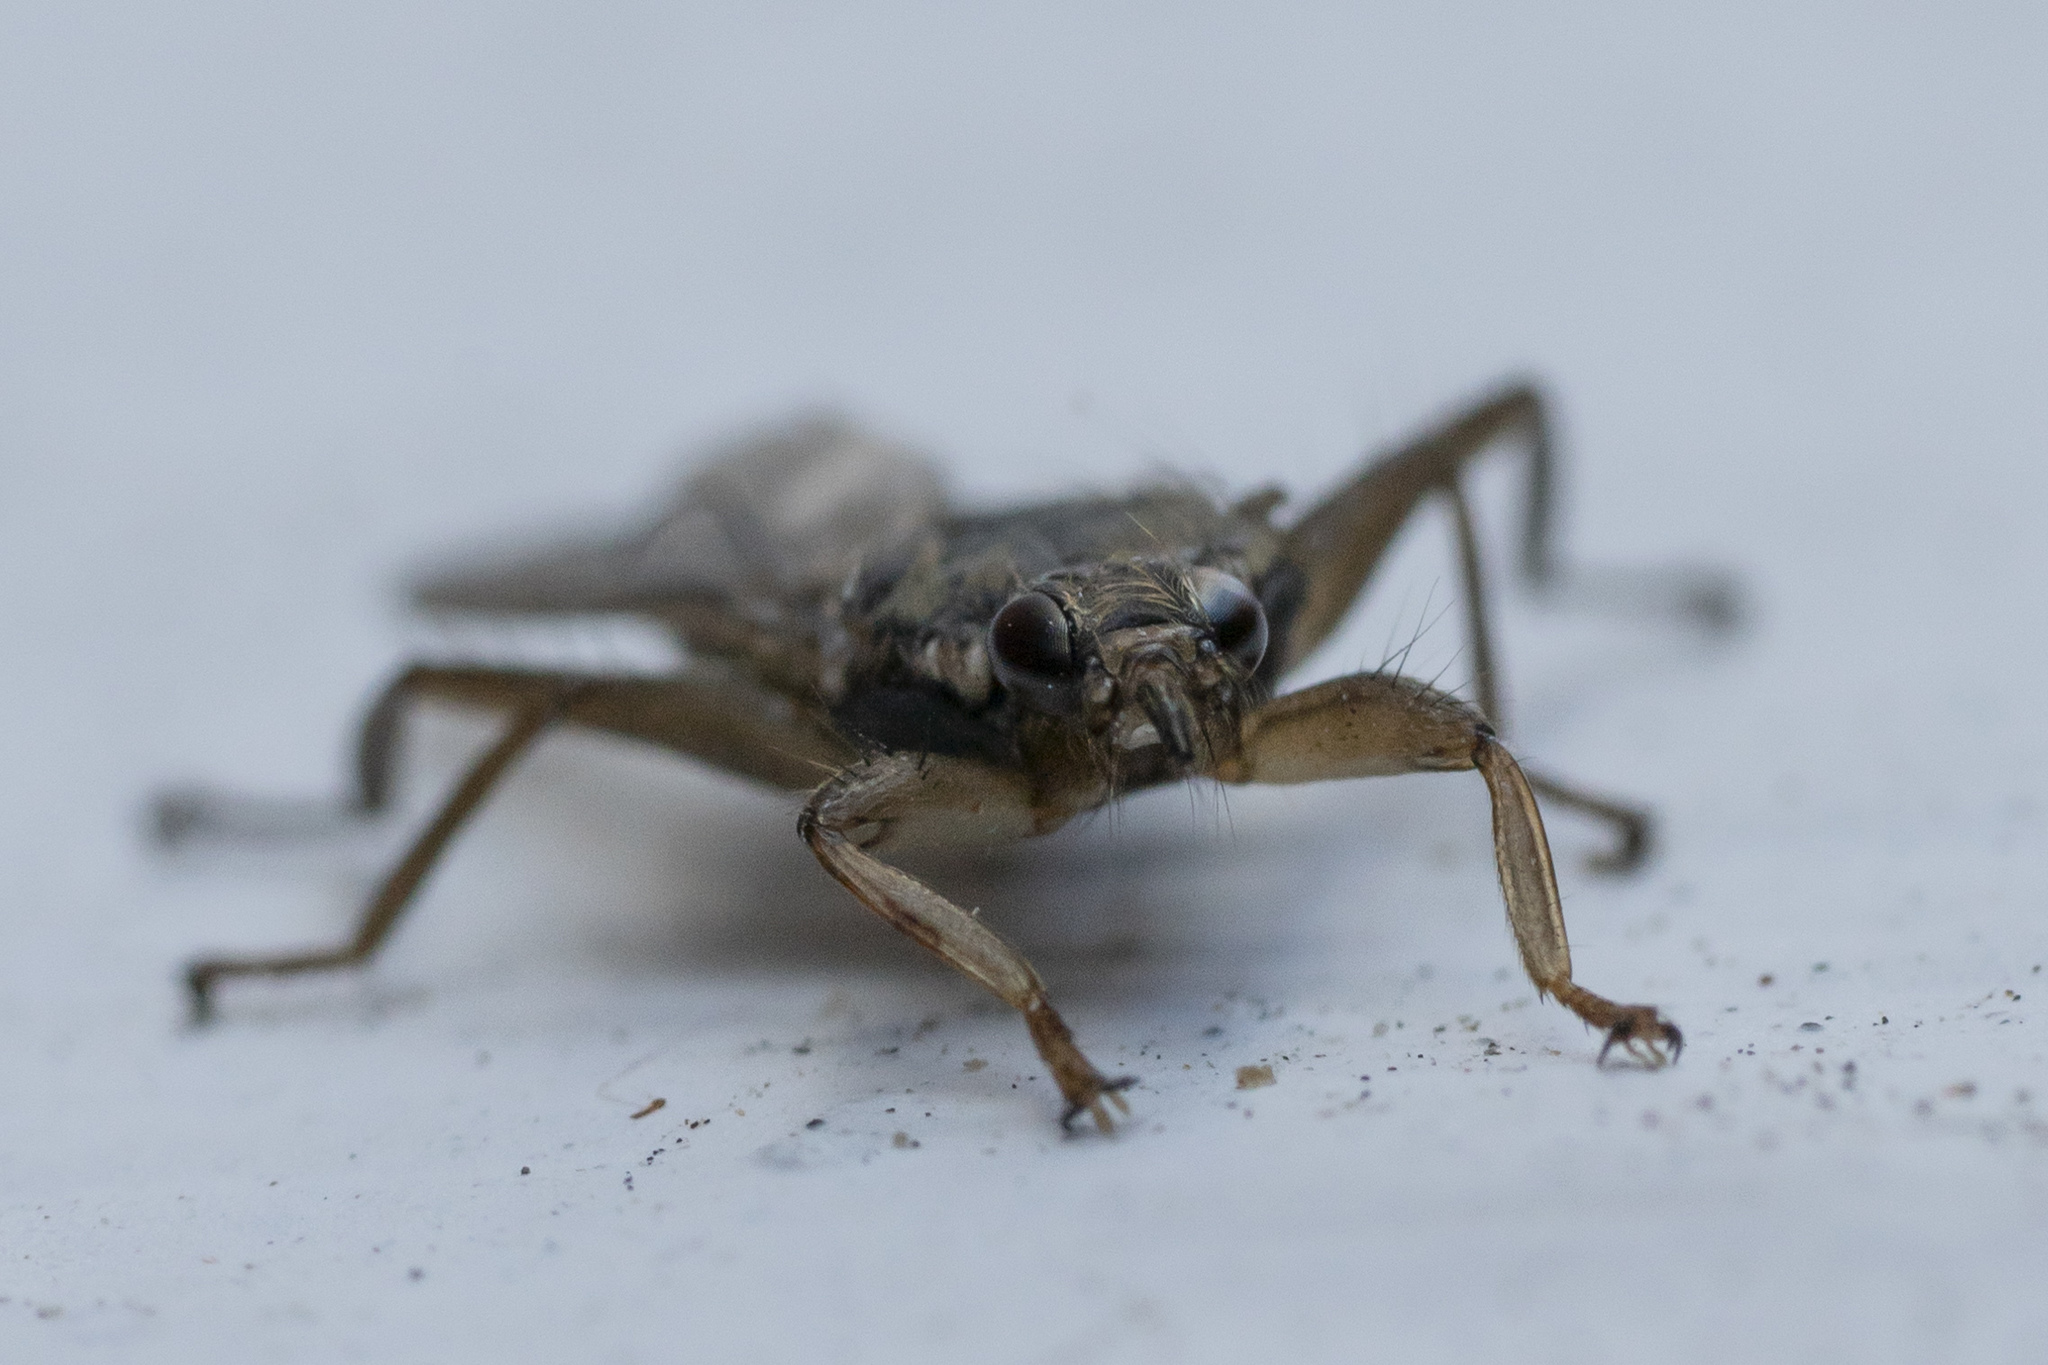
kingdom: Animalia
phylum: Arthropoda
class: Insecta
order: Diptera
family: Hippoboscidae
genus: Pseudolynchia
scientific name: Pseudolynchia canariensis
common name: Louse fly
